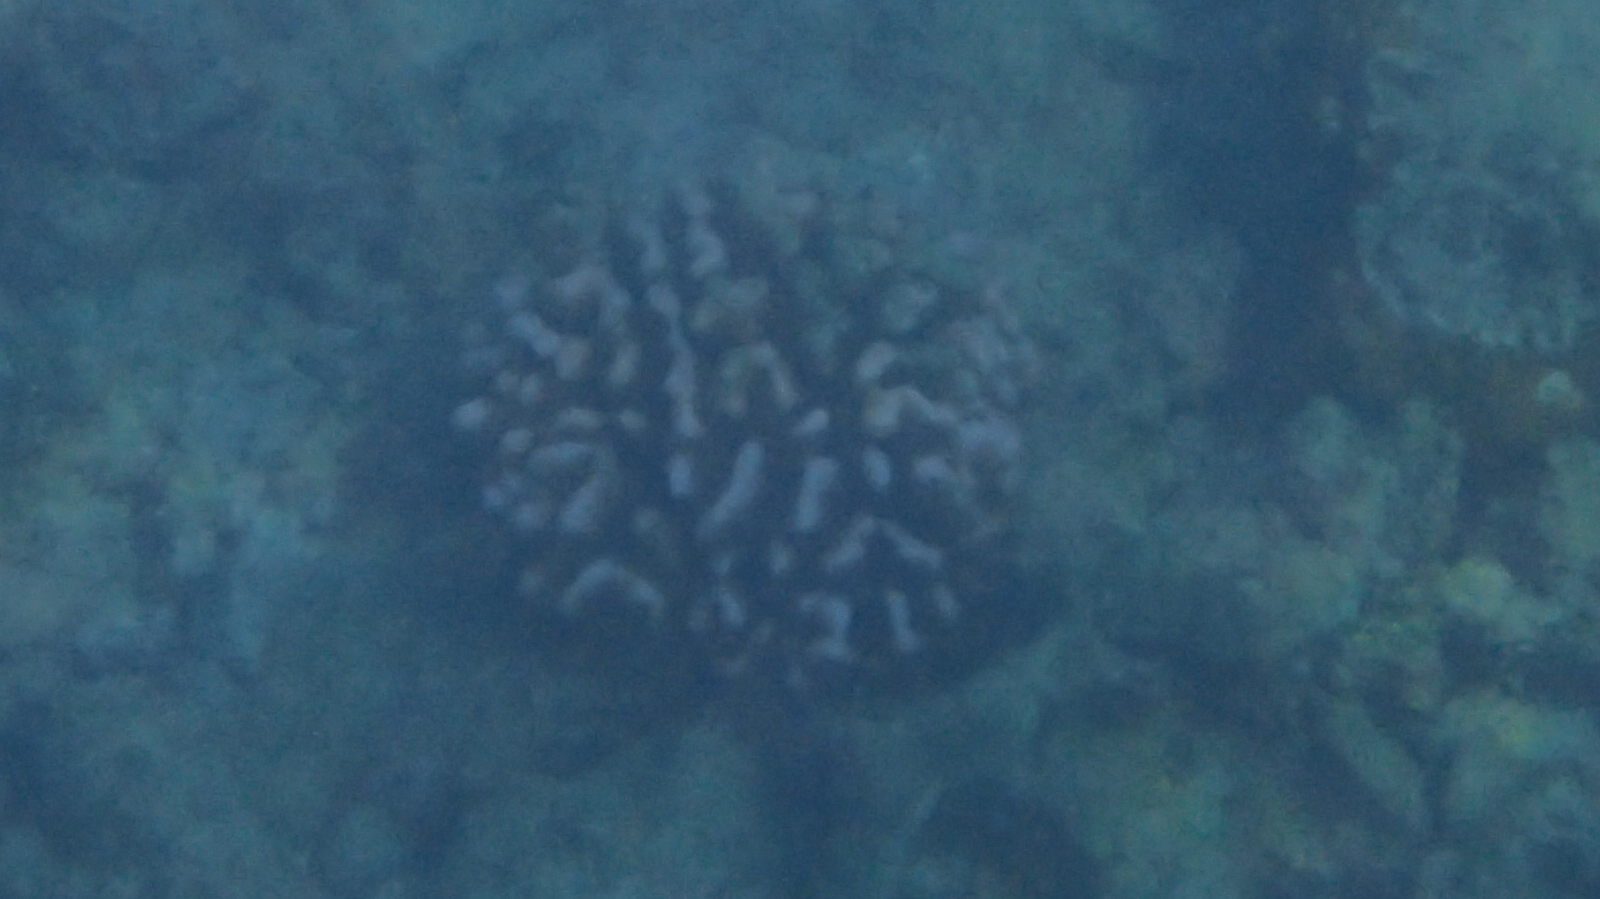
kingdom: Animalia
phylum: Cnidaria
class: Anthozoa
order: Scleractinia
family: Pocilloporidae
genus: Pocillopora
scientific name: Pocillopora meandrina
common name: Cauliflower coral
